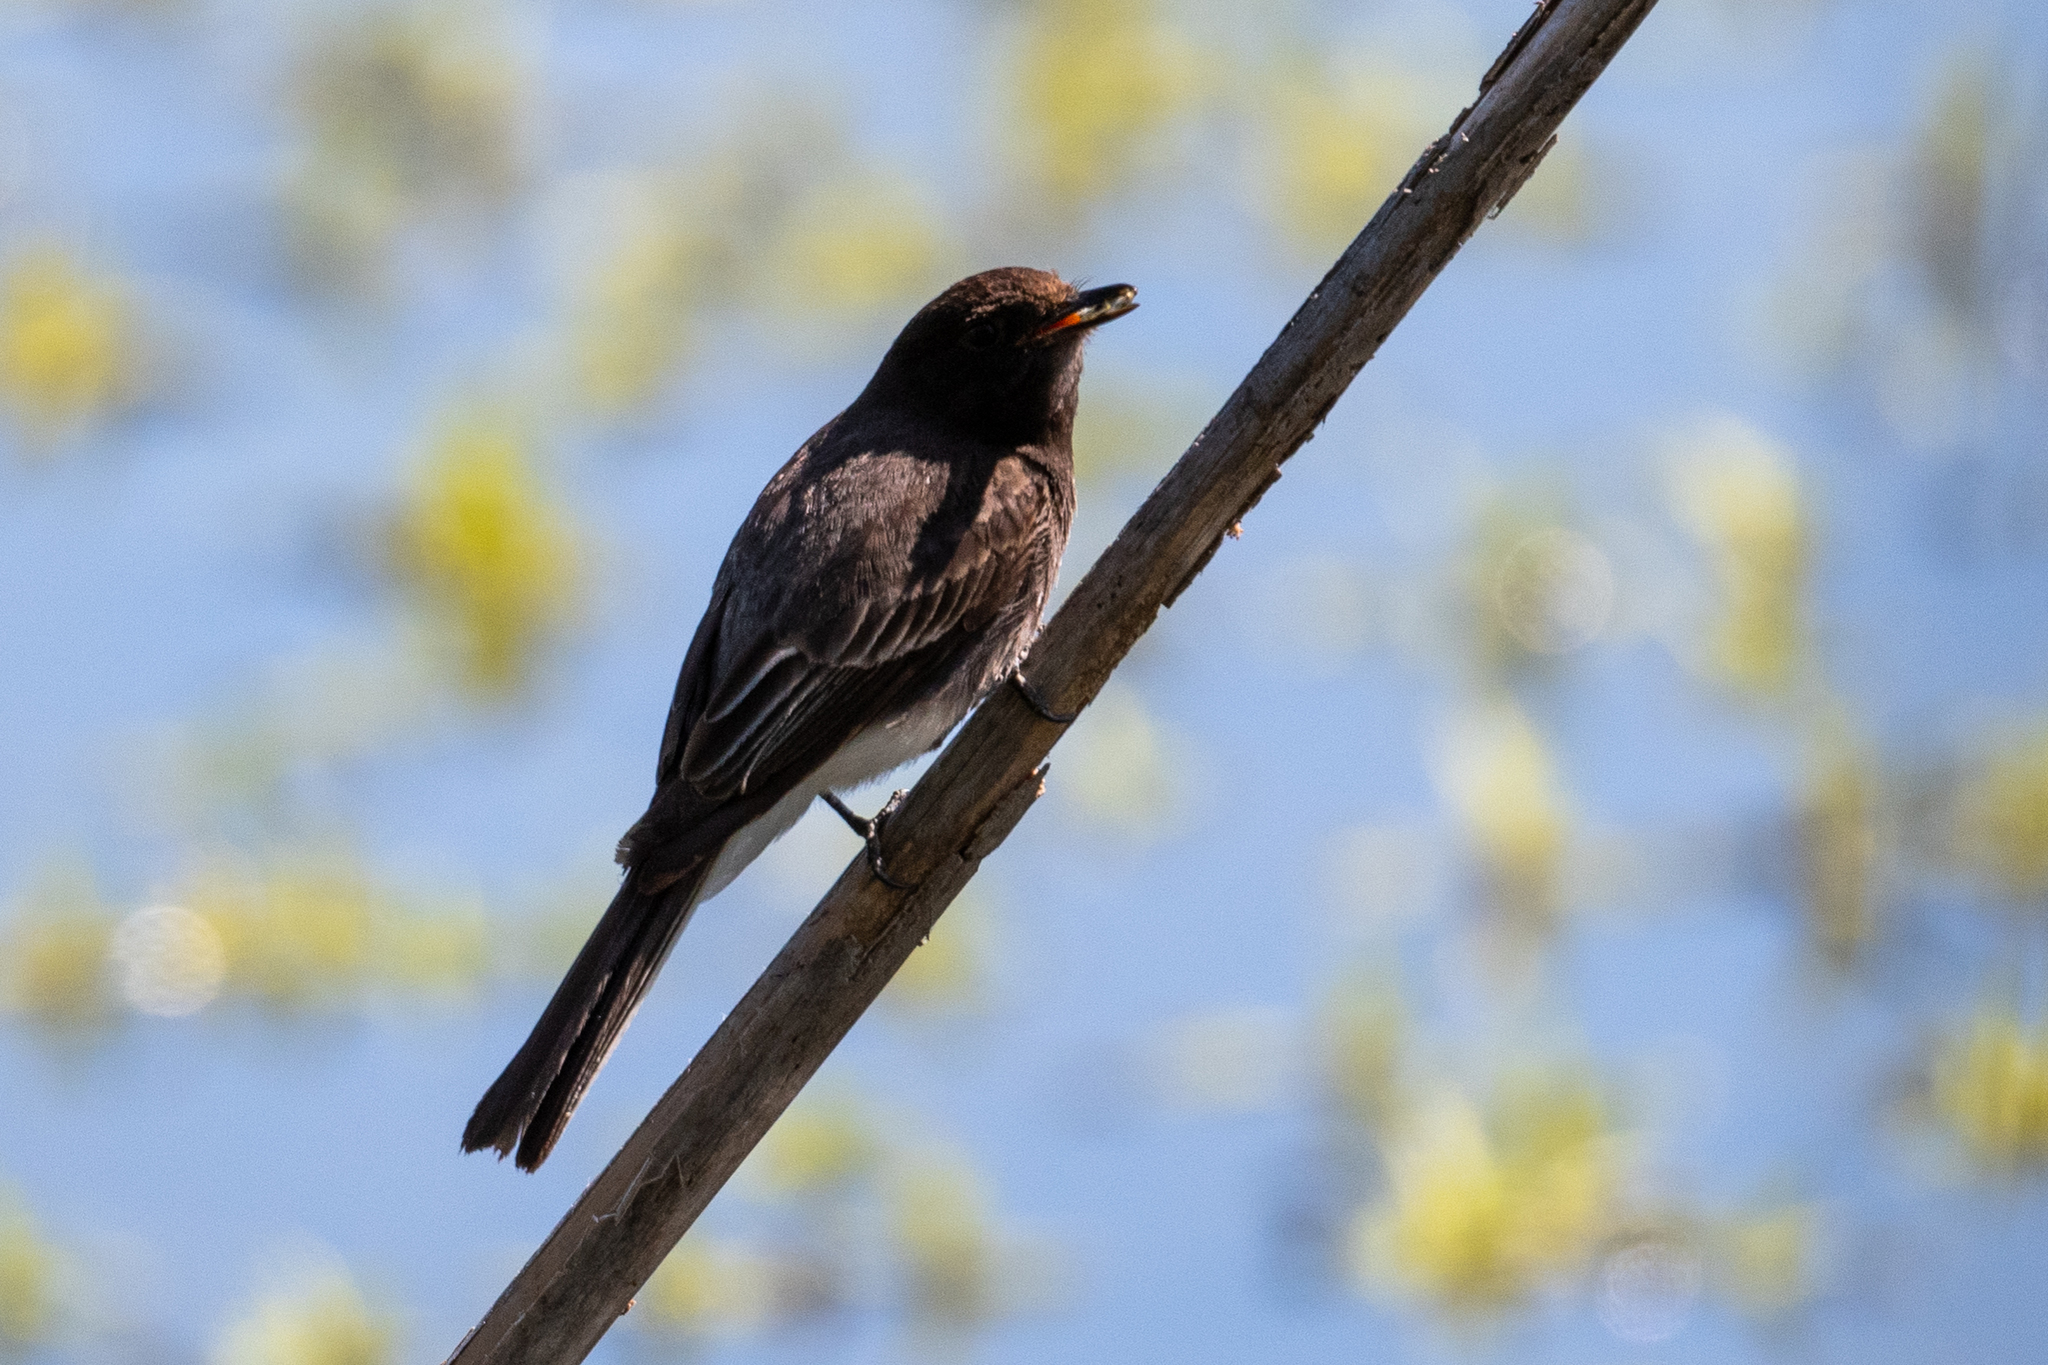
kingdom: Animalia
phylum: Chordata
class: Aves
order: Passeriformes
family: Tyrannidae
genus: Sayornis
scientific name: Sayornis nigricans
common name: Black phoebe
